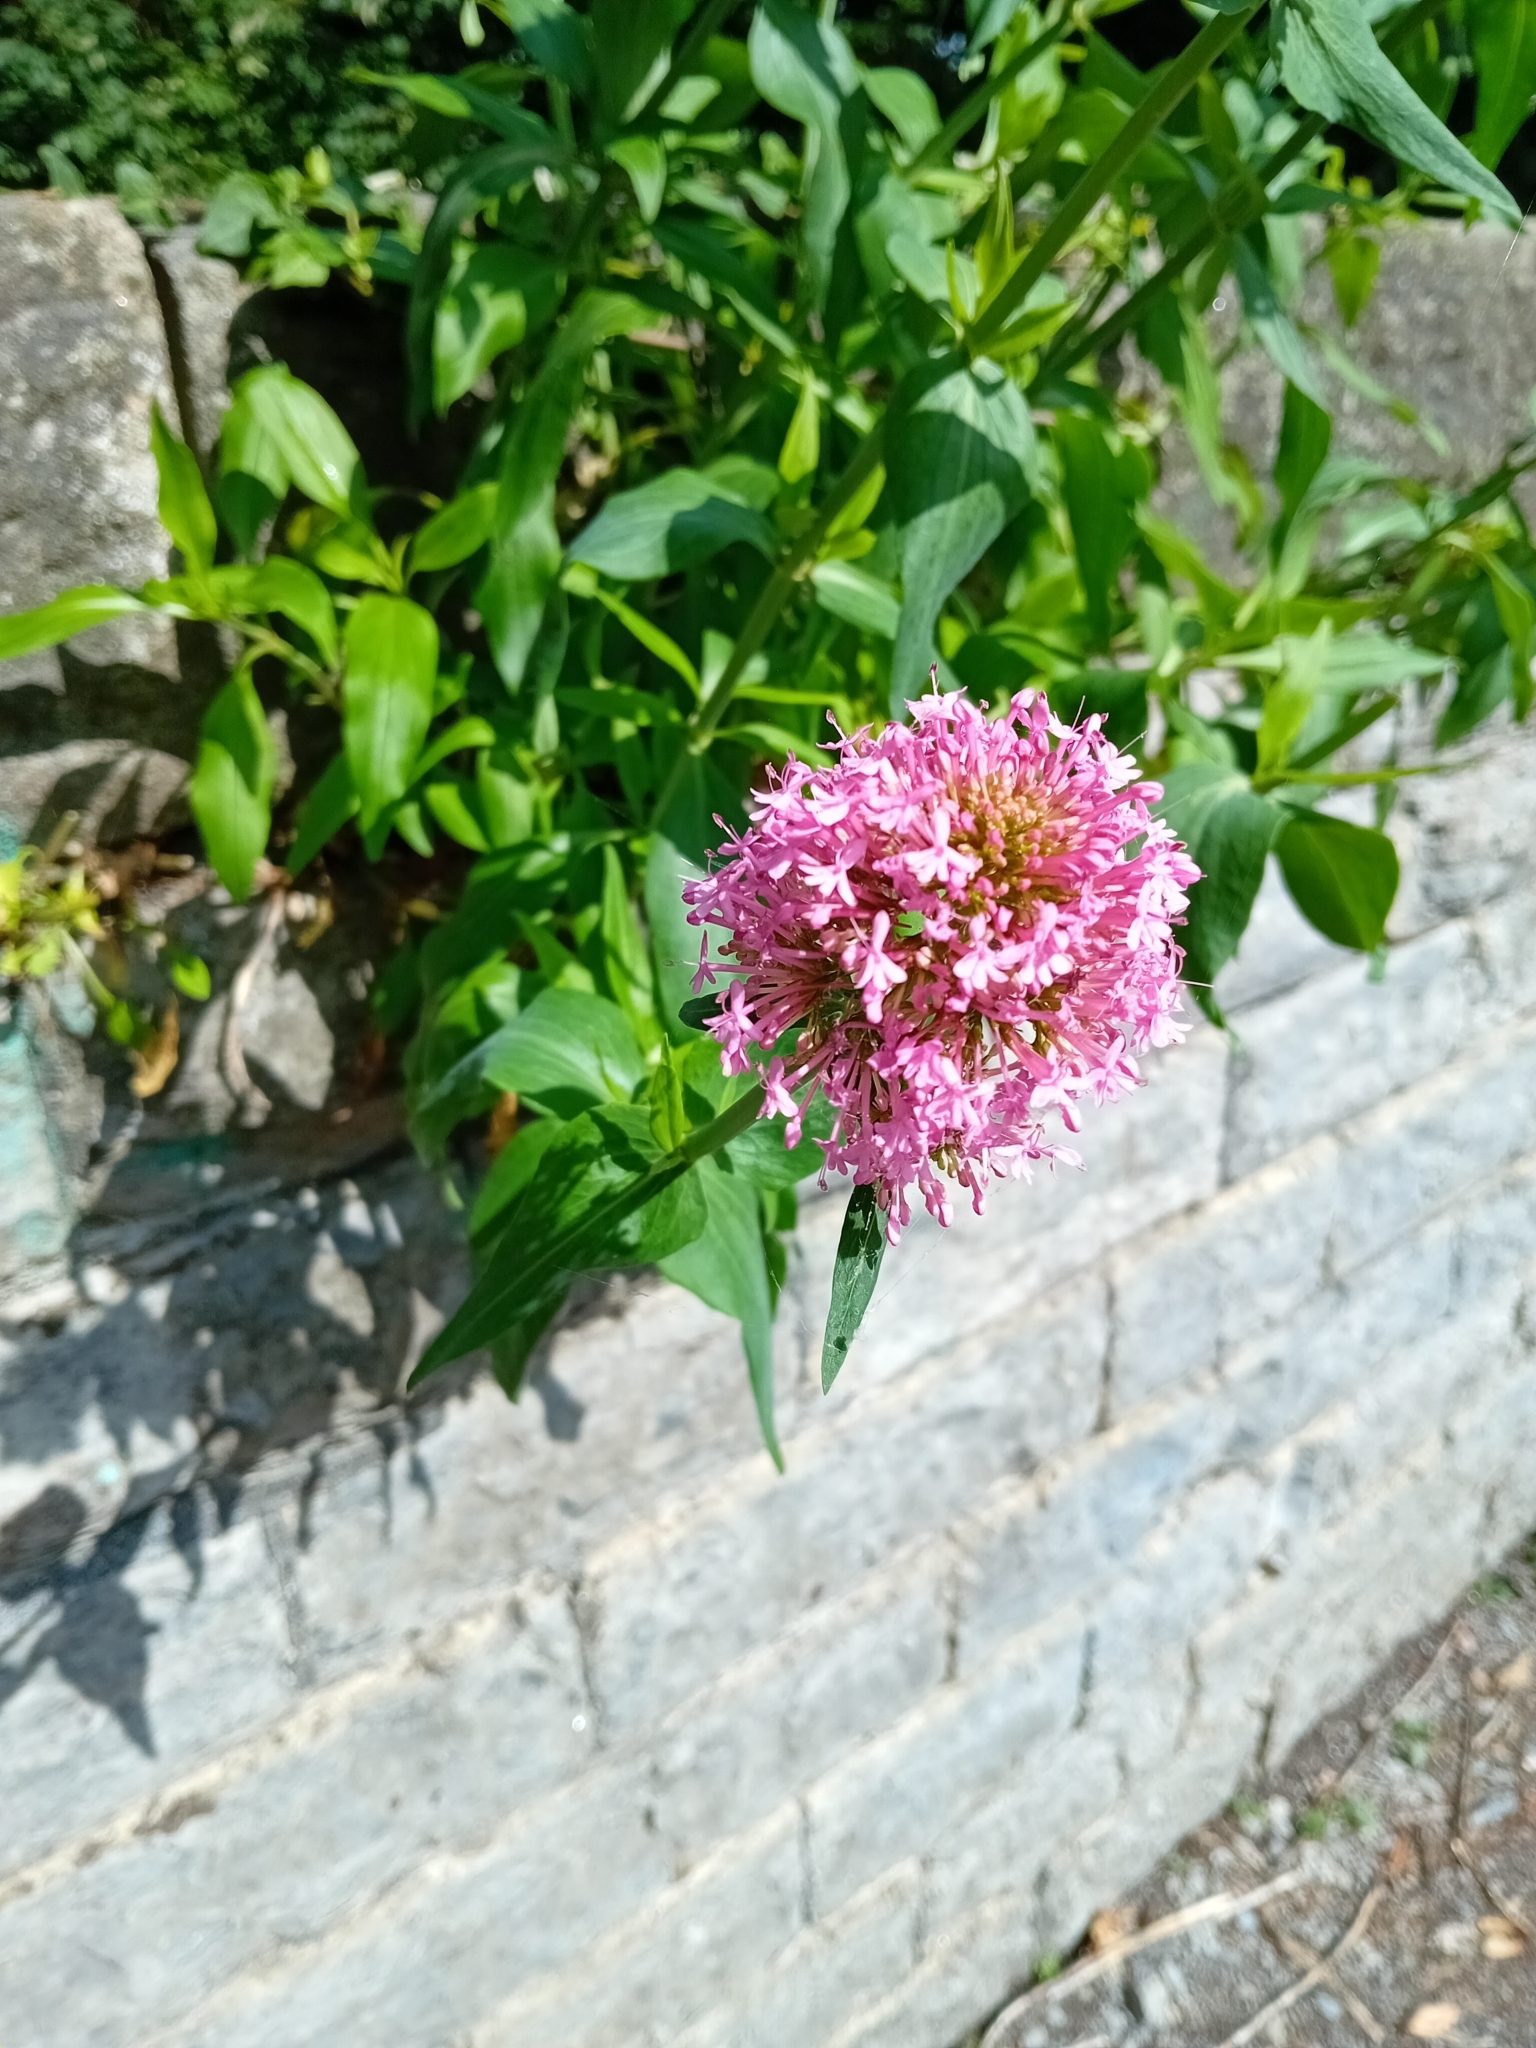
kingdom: Plantae
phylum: Tracheophyta
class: Magnoliopsida
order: Dipsacales
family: Caprifoliaceae
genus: Centranthus
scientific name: Centranthus ruber
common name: Red valerian
